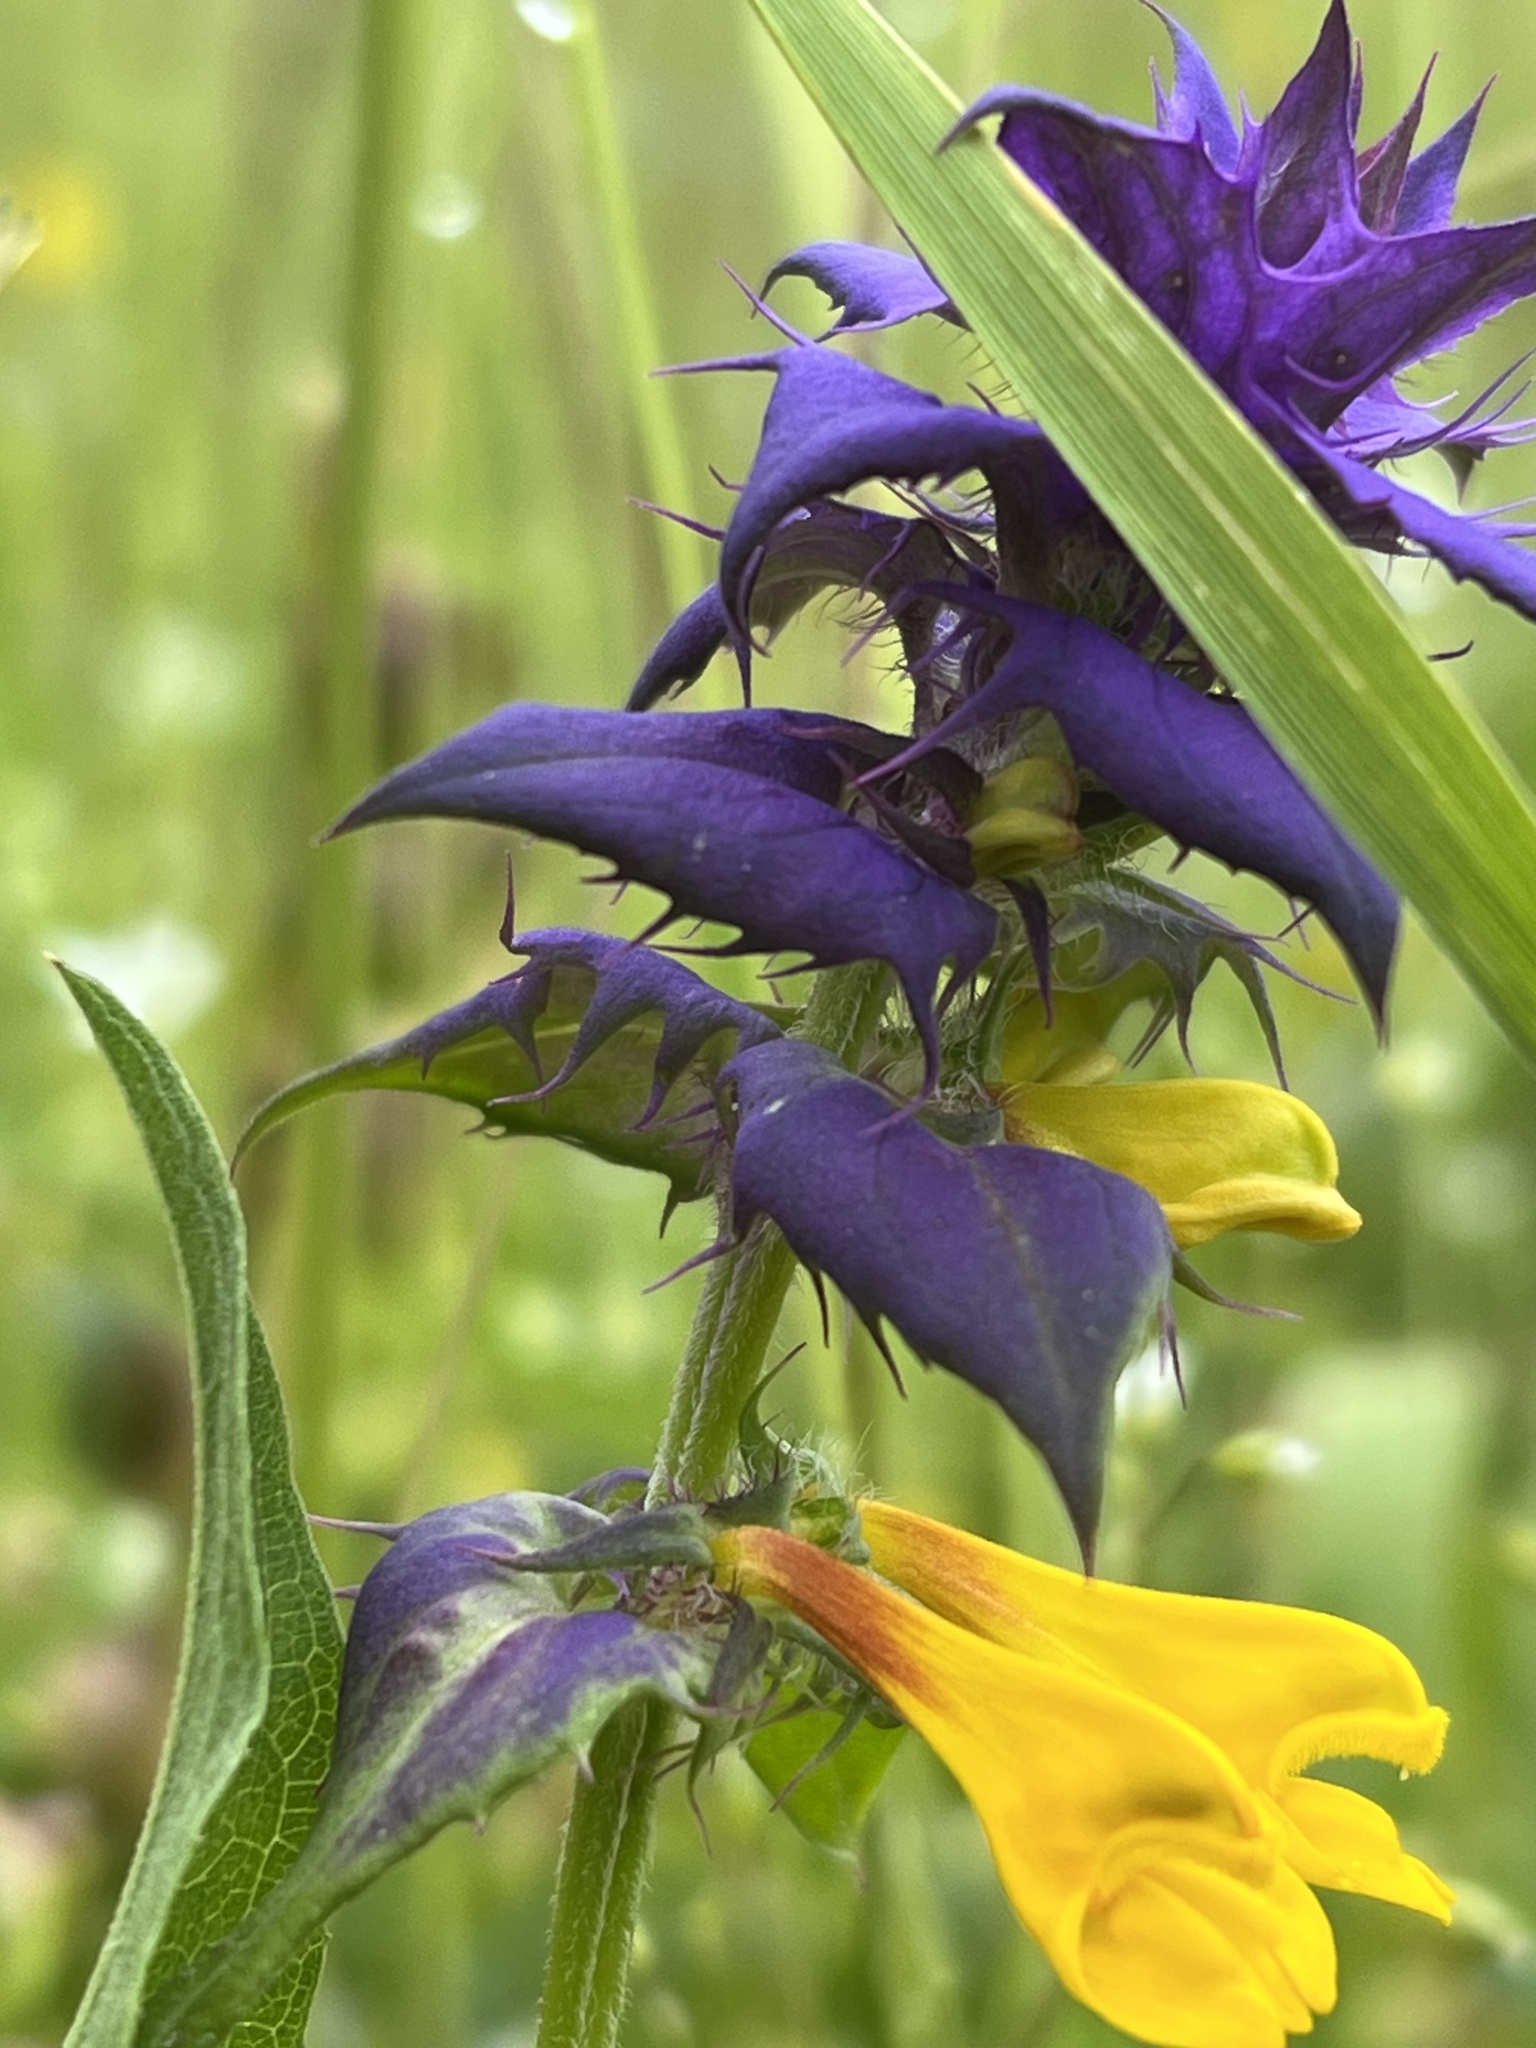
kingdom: Plantae
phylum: Tracheophyta
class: Magnoliopsida
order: Lamiales
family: Orobanchaceae
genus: Melampyrum
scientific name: Melampyrum nemorosum
